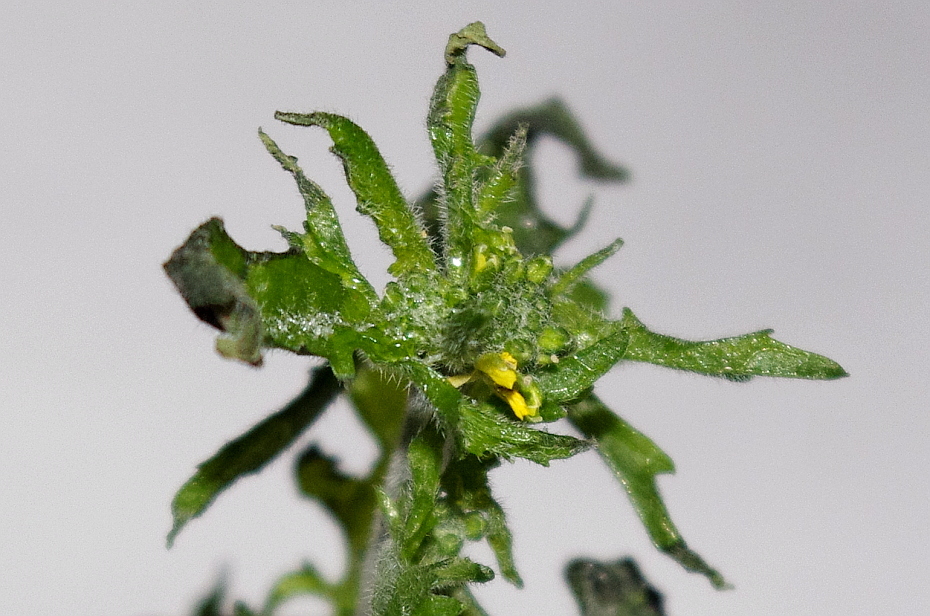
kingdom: Plantae
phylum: Tracheophyta
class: Magnoliopsida
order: Brassicales
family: Brassicaceae
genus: Sisymbrium
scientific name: Sisymbrium loeselii
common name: False london-rocket
